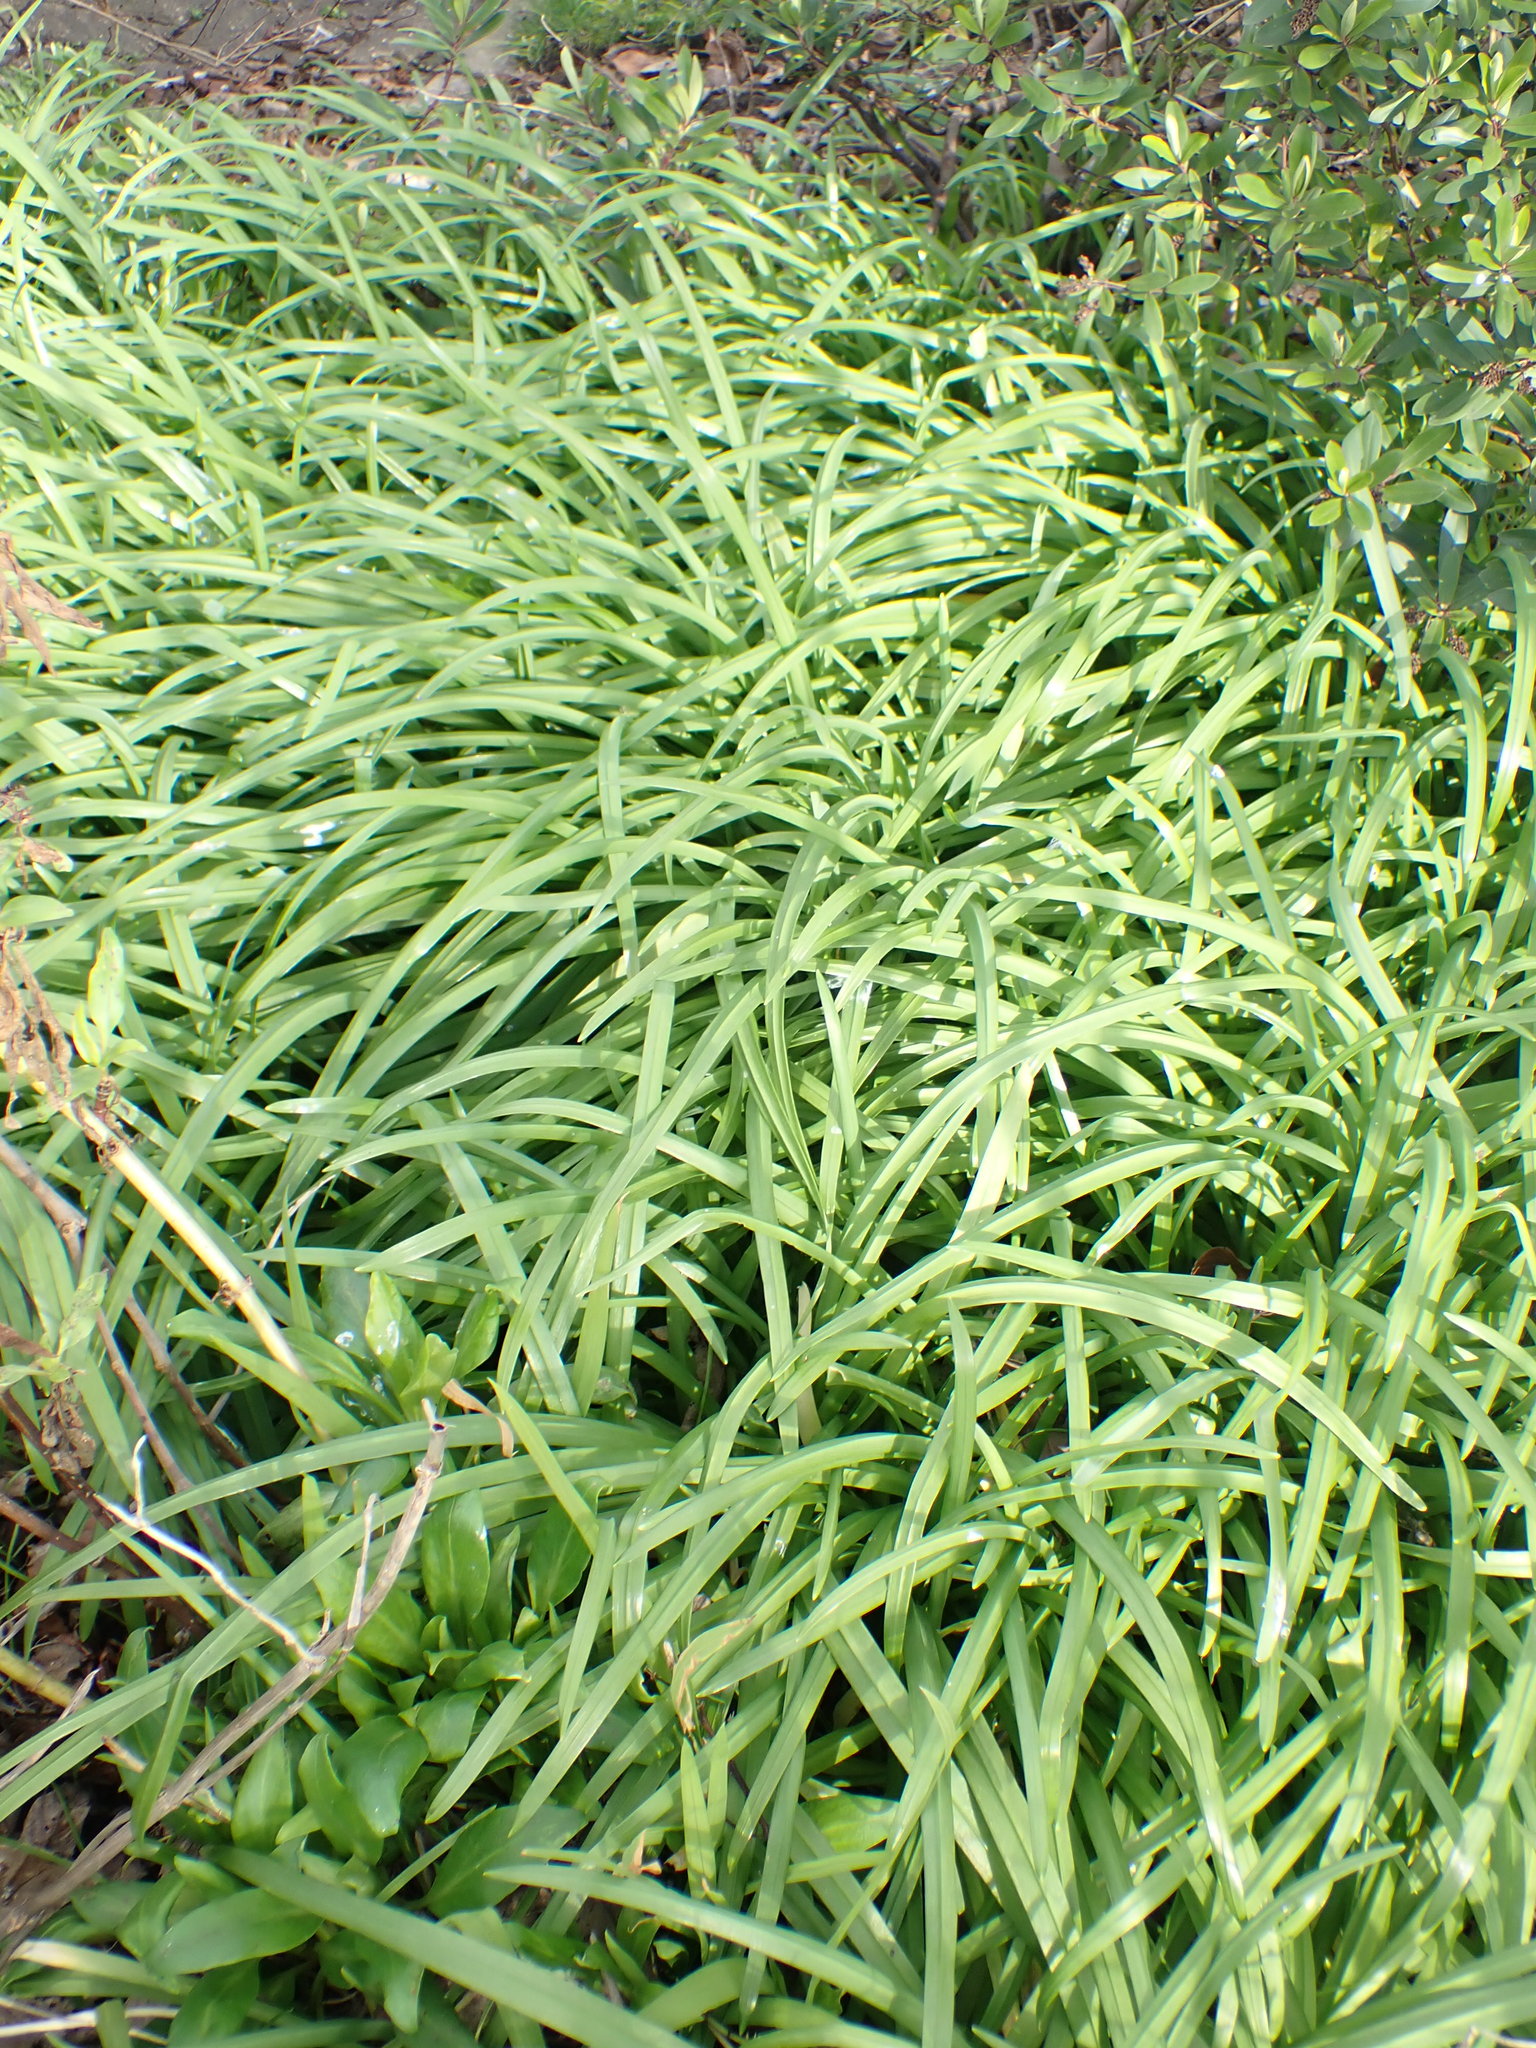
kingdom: Plantae
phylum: Tracheophyta
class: Liliopsida
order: Asparagales
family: Amaryllidaceae
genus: Allium
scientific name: Allium triquetrum
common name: Three-cornered garlic
